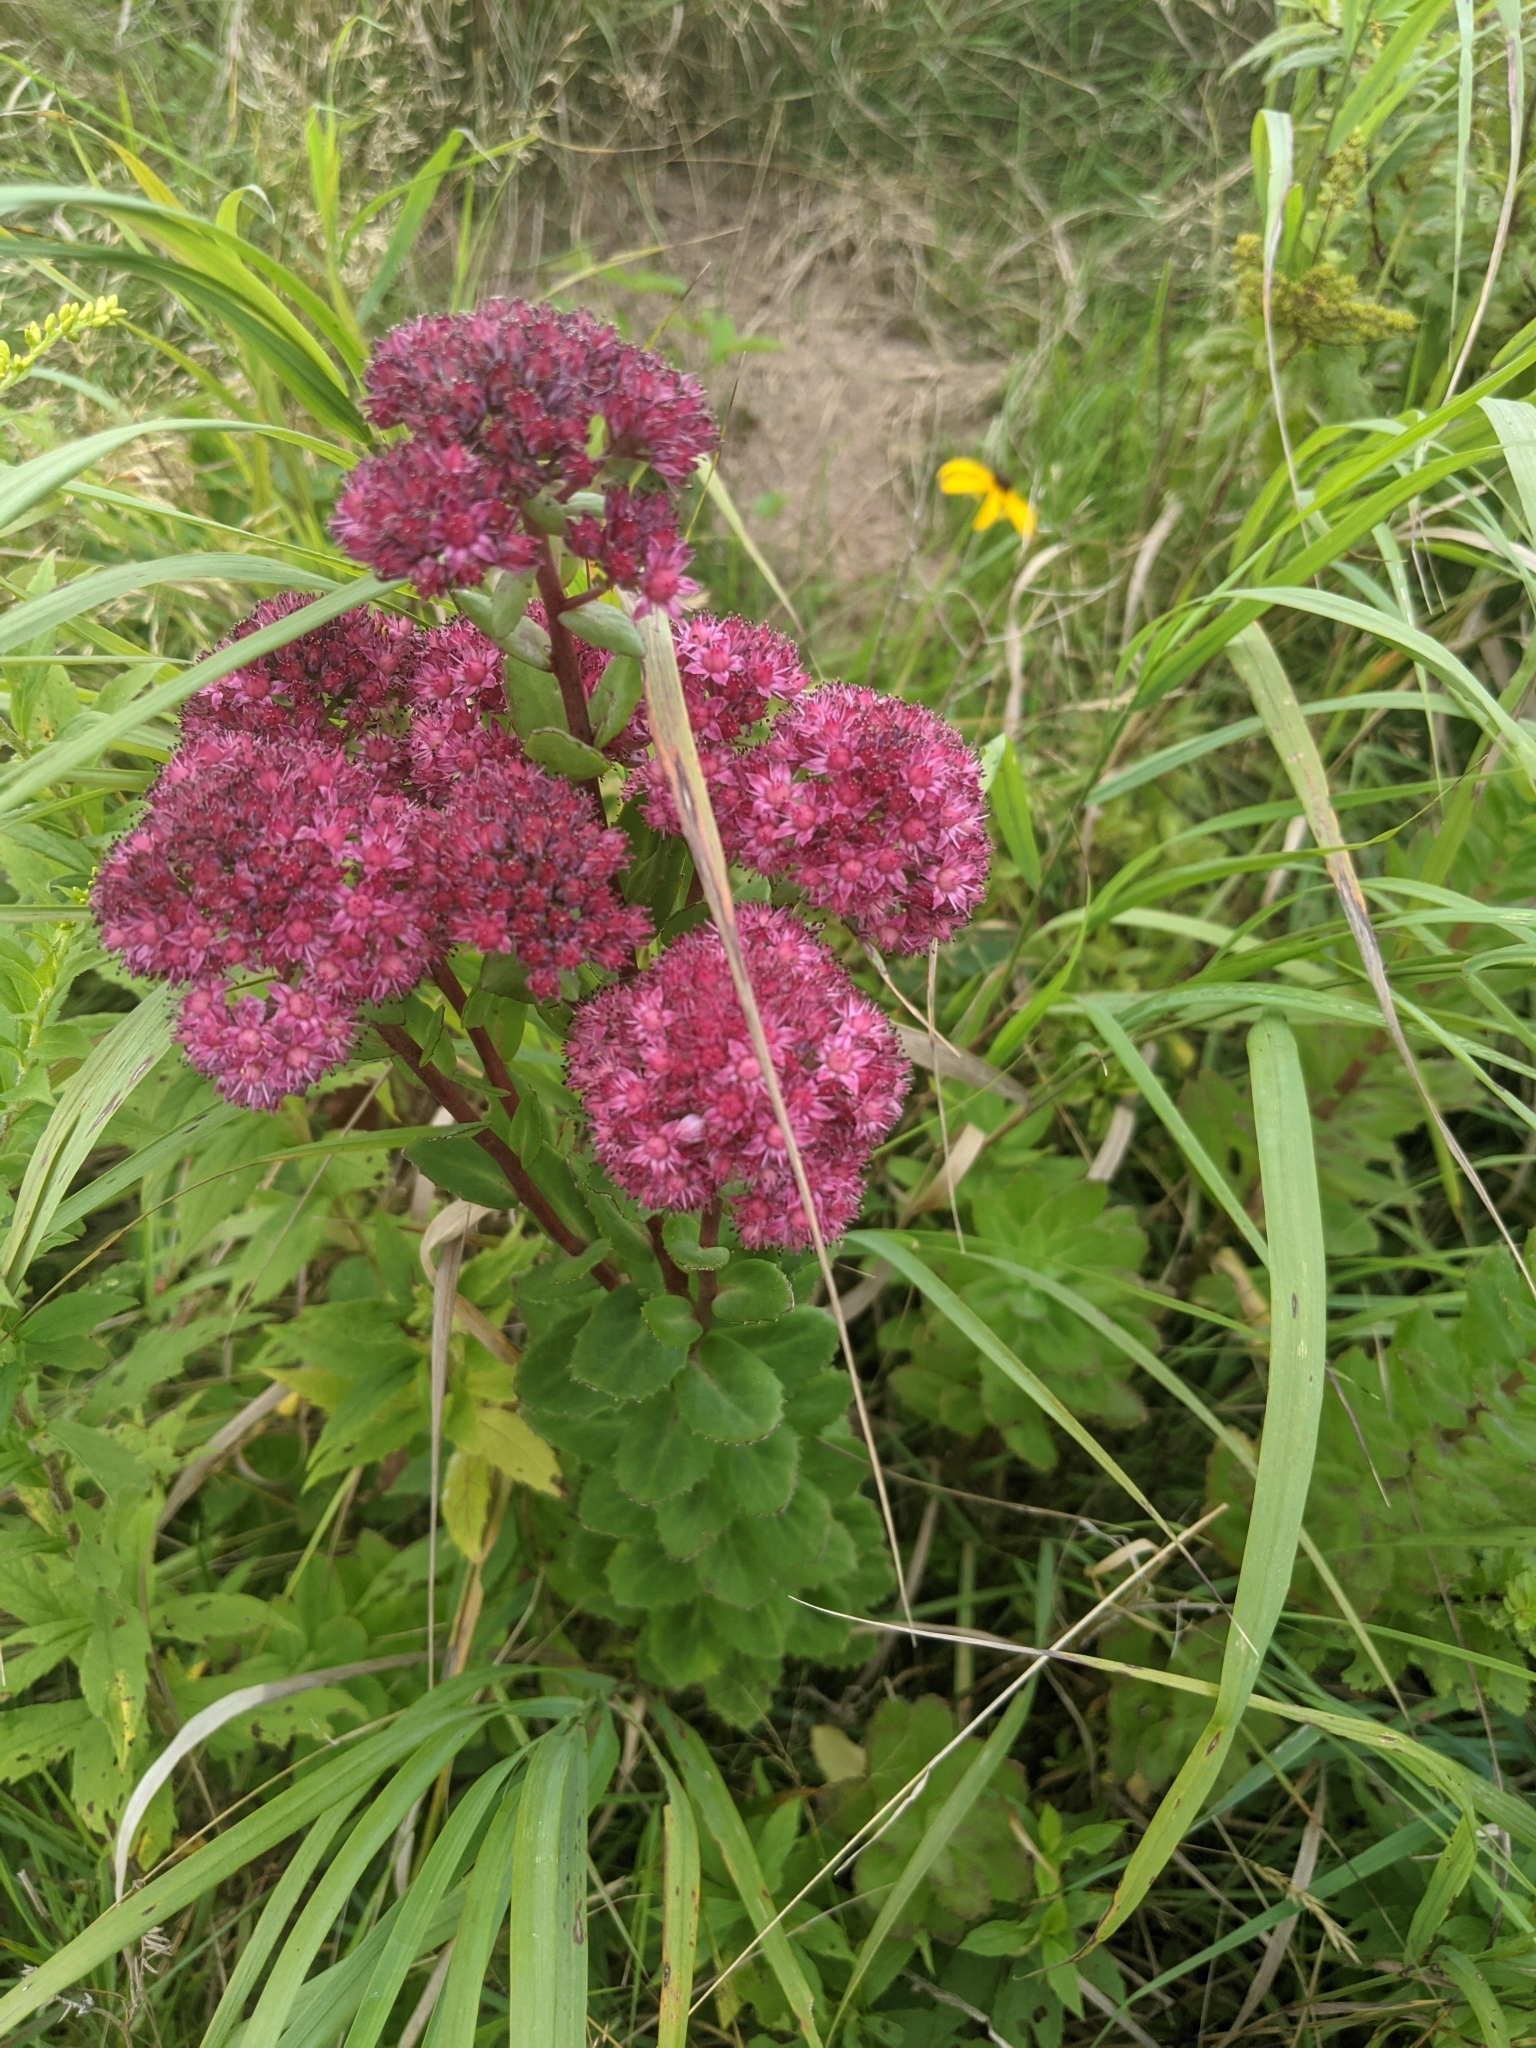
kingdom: Plantae
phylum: Tracheophyta
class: Magnoliopsida
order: Saxifragales
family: Crassulaceae
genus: Hylotelephium
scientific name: Hylotelephium telephium
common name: Live-forever
